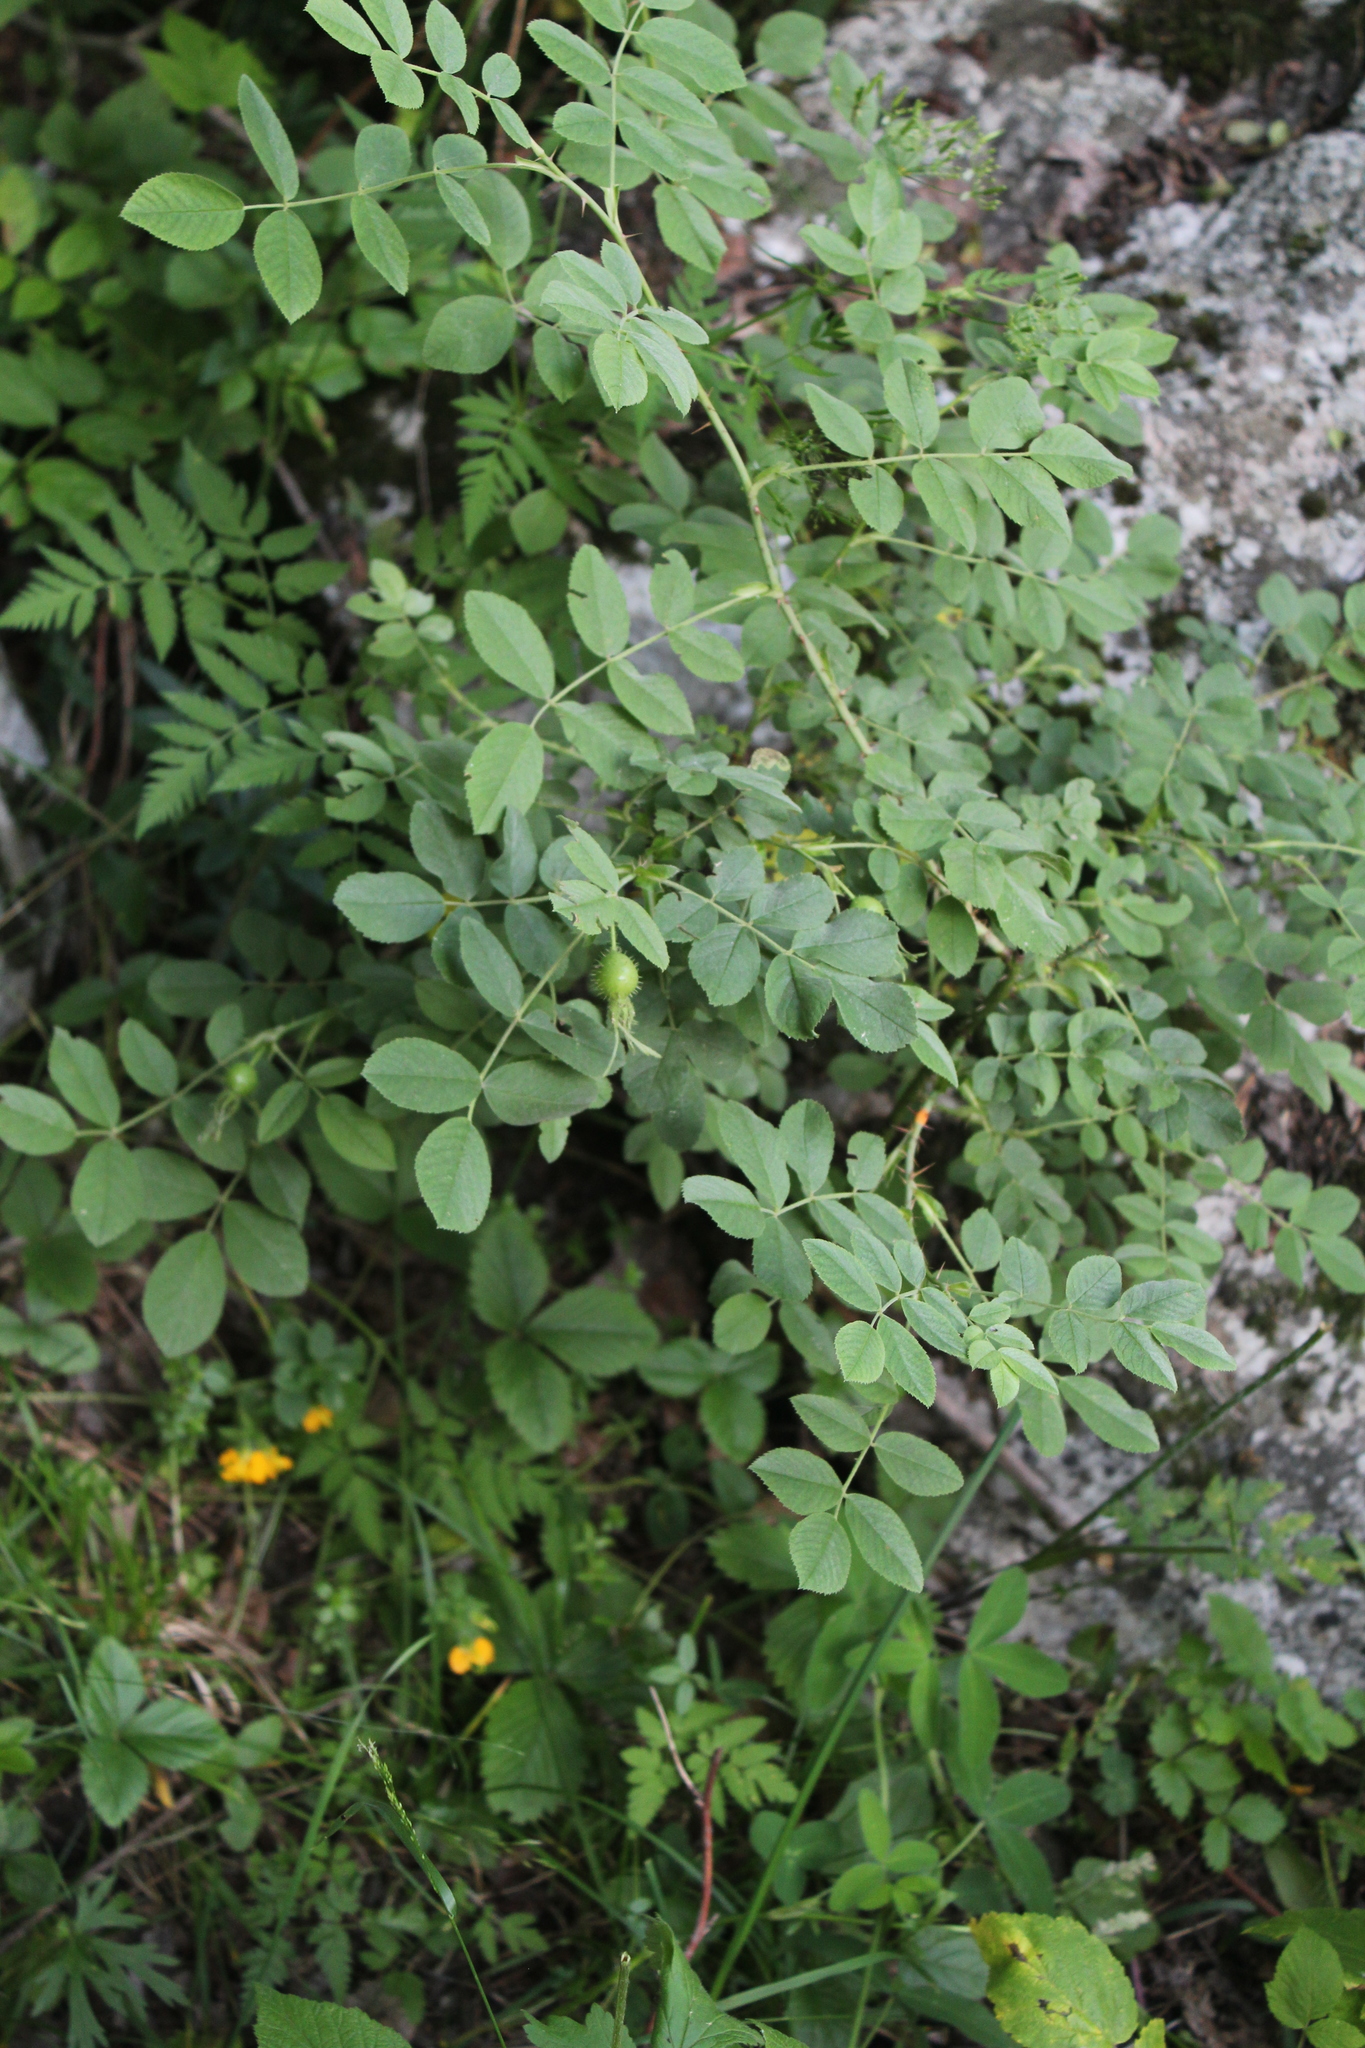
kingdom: Plantae
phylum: Tracheophyta
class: Magnoliopsida
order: Rosales
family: Rosaceae
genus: Rosa
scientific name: Rosa mollis
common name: Rose
